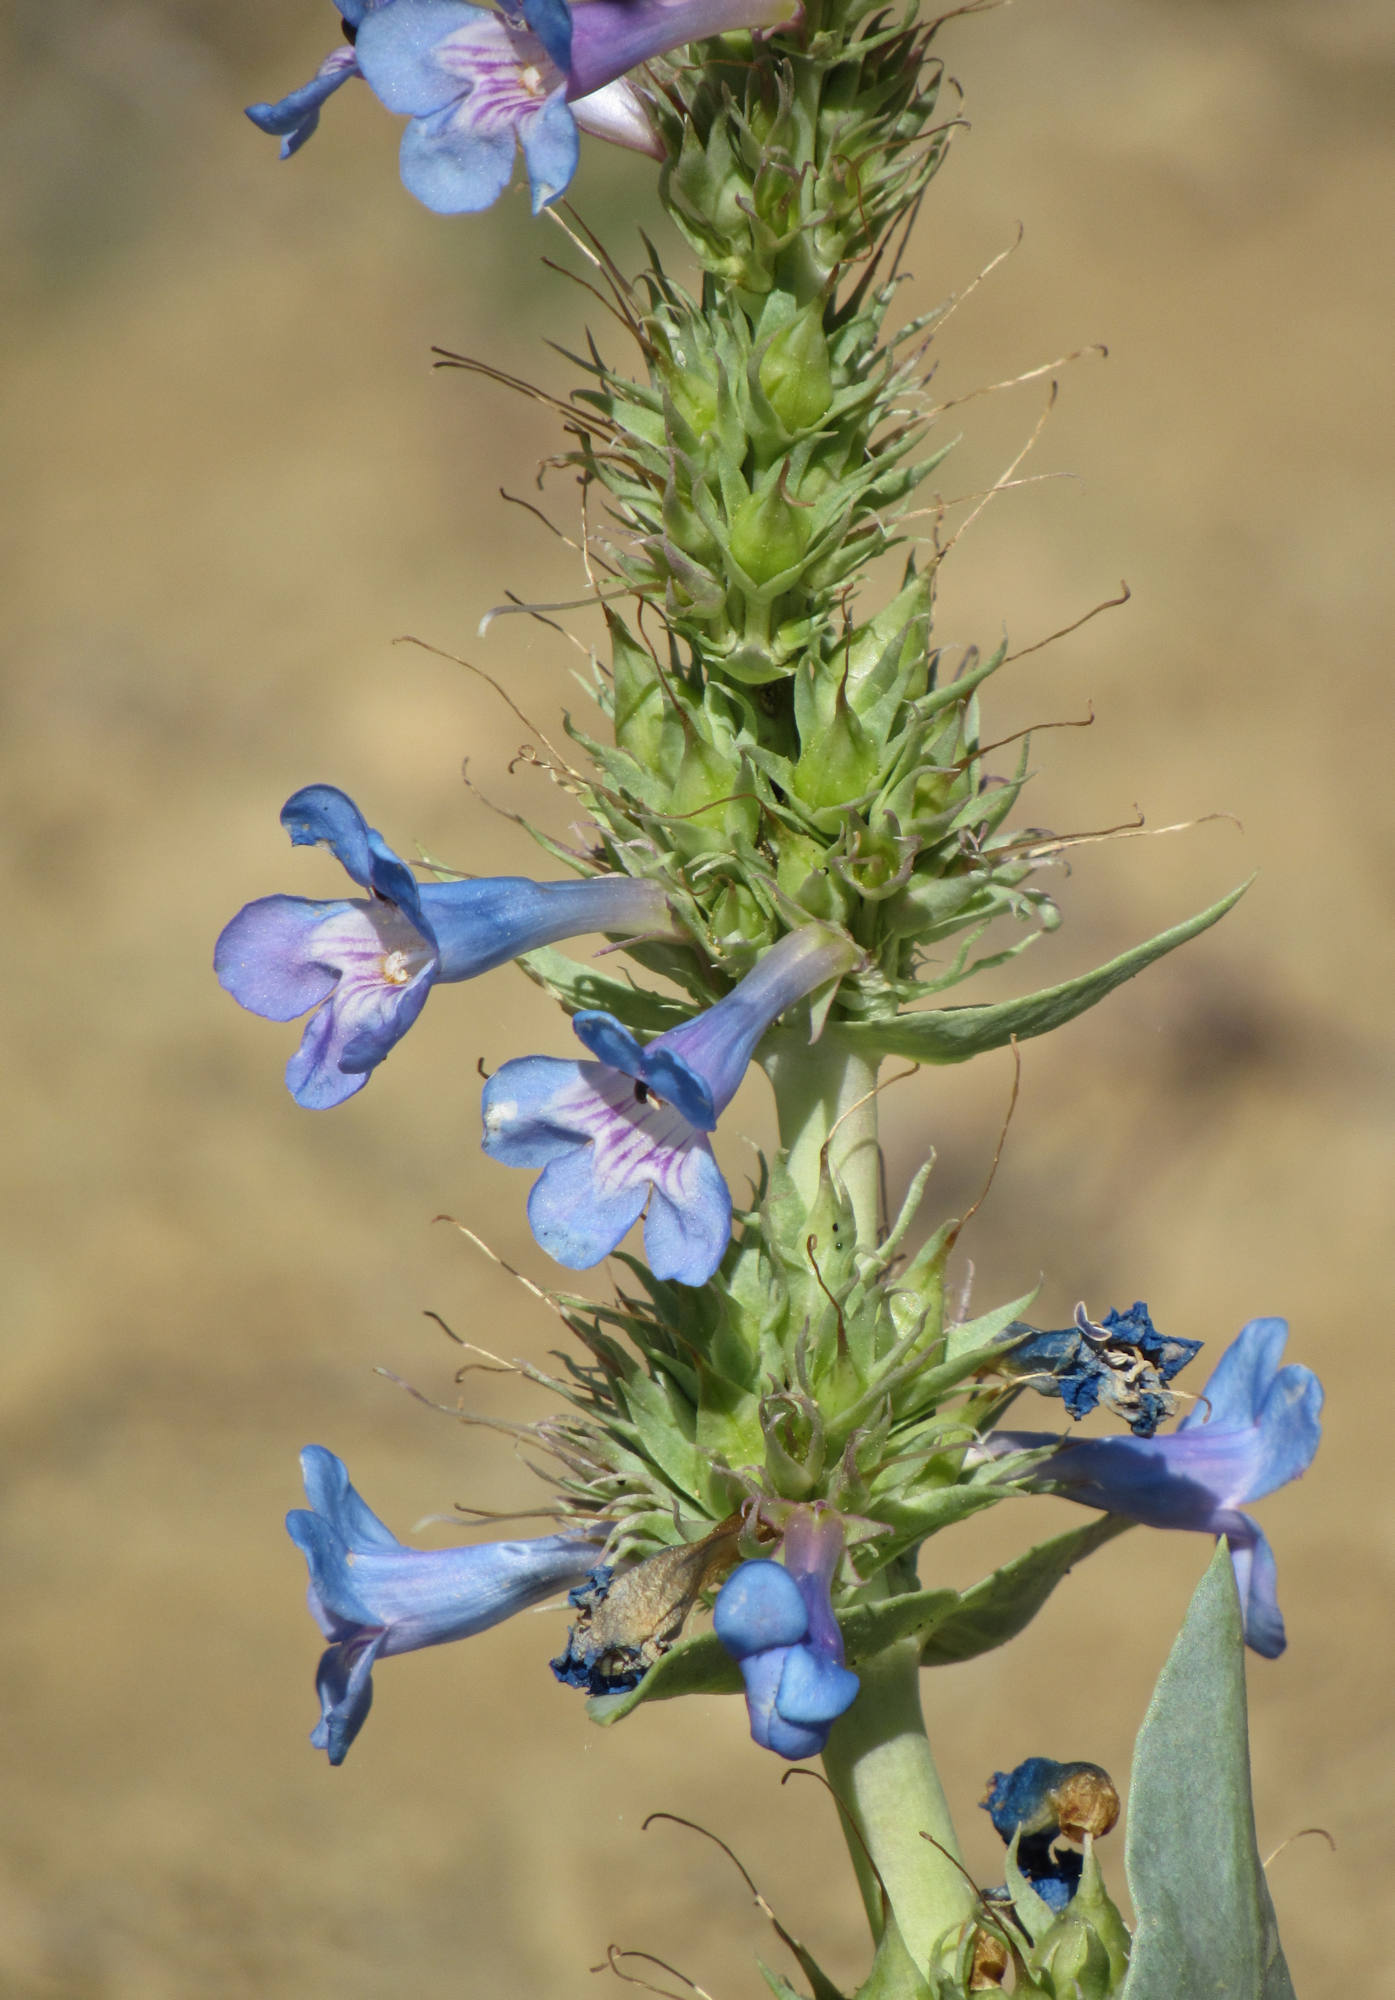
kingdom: Plantae
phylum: Tracheophyta
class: Magnoliopsida
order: Lamiales
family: Plantaginaceae
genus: Penstemon
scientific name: Penstemon nitidus
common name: Shining penstemon
